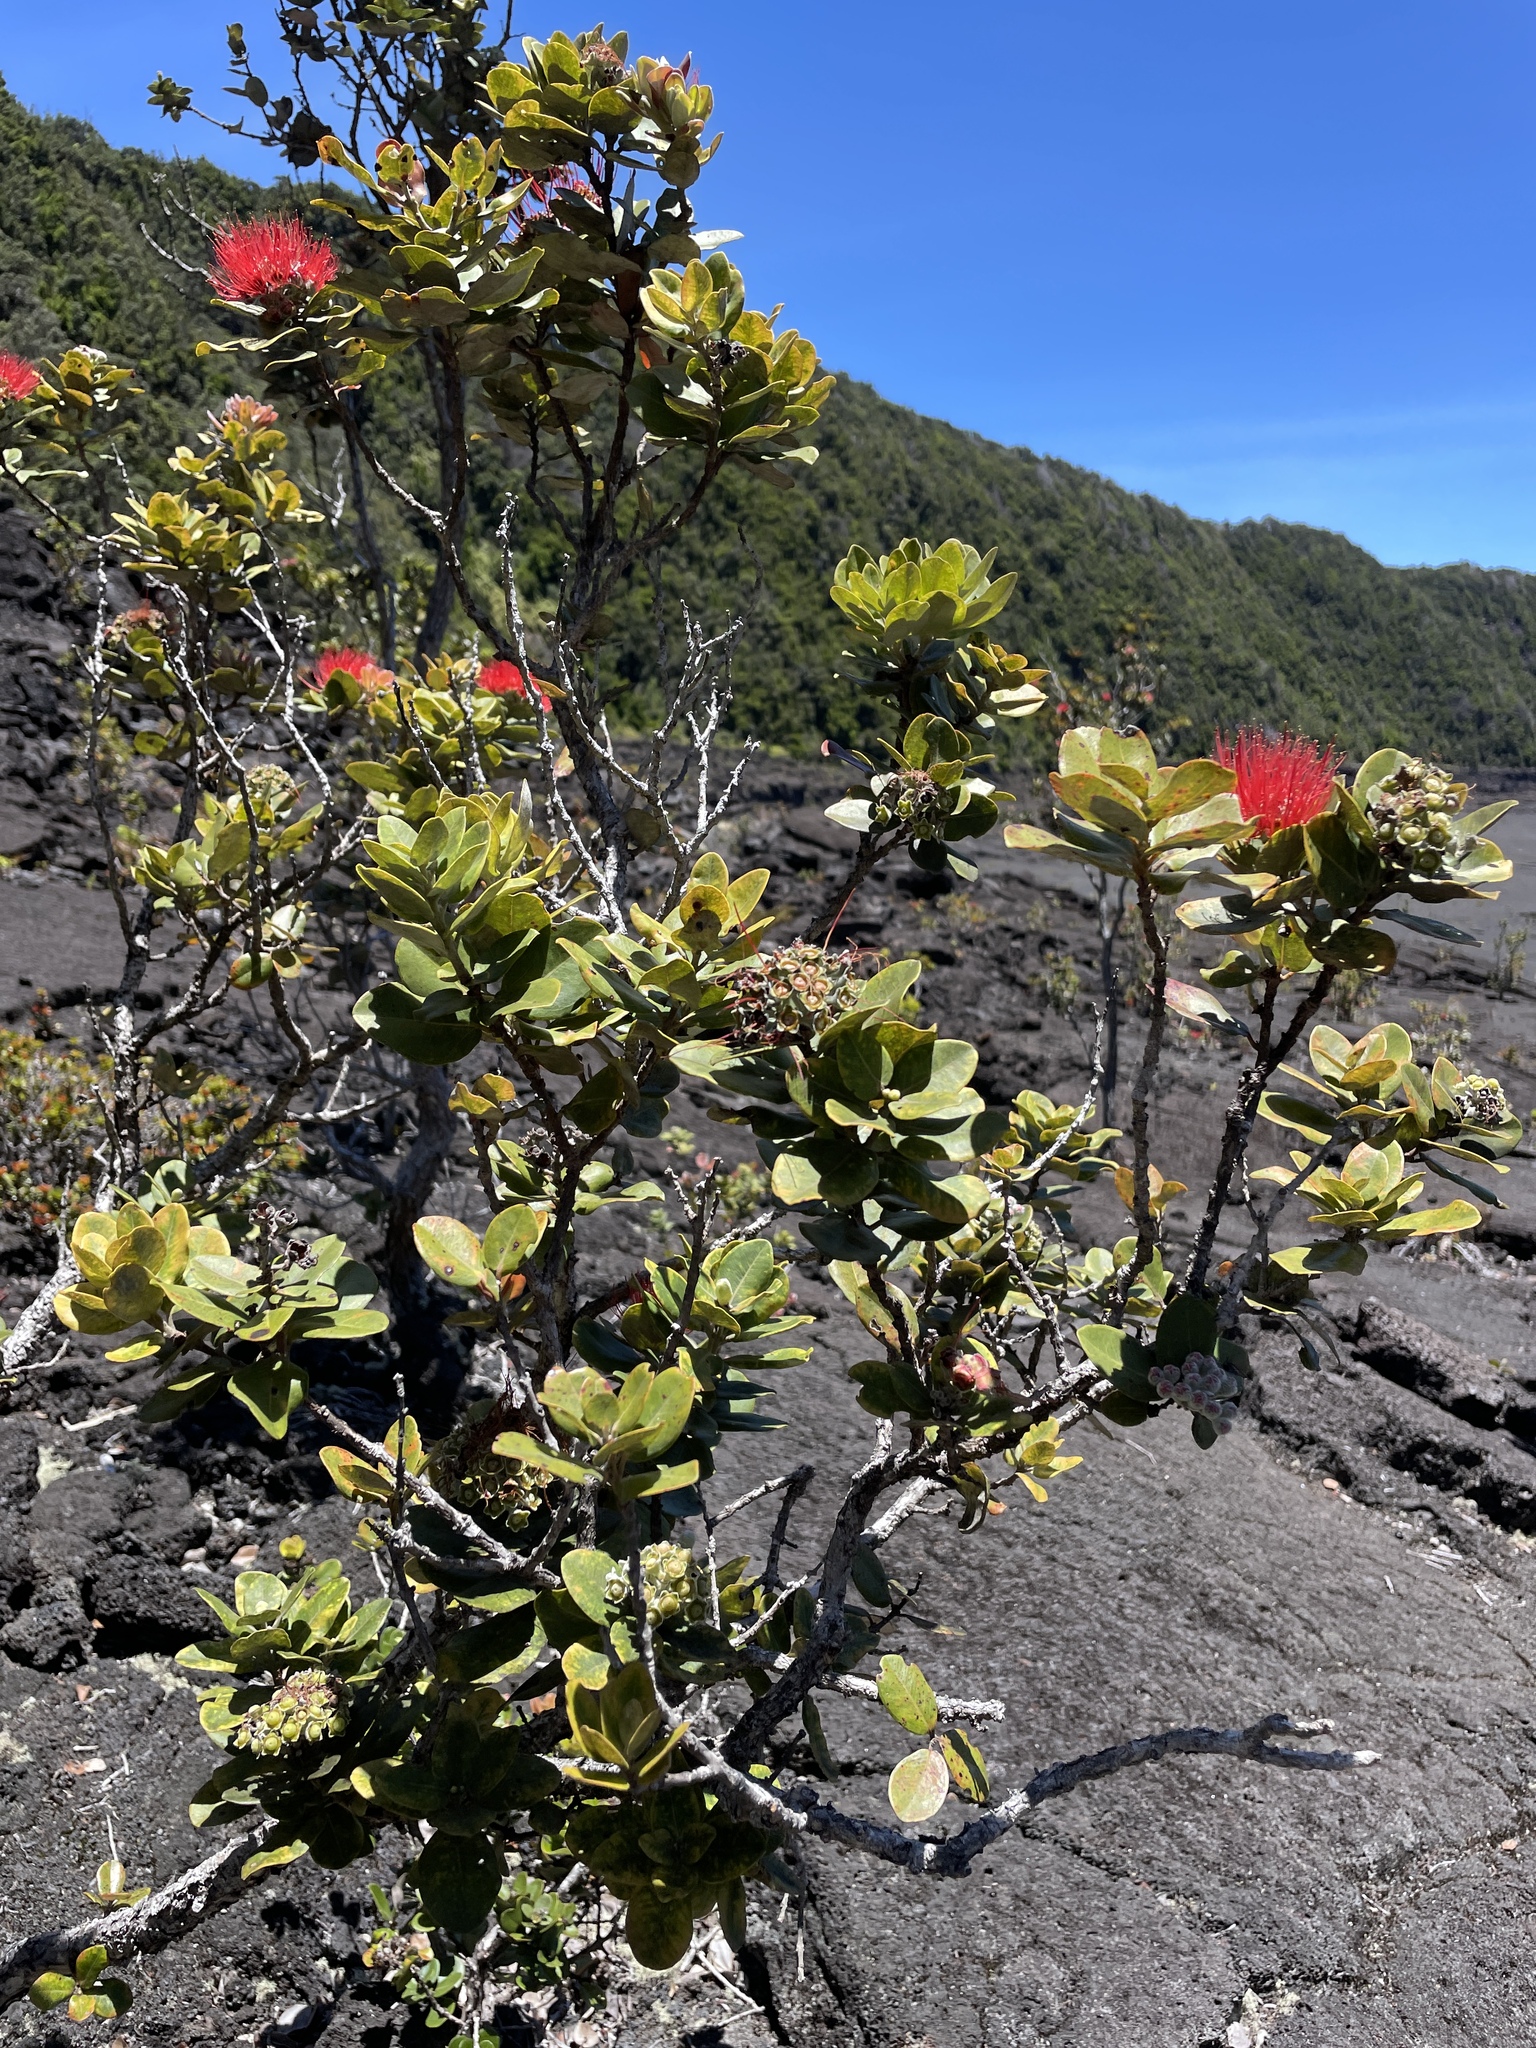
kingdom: Plantae
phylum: Tracheophyta
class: Magnoliopsida
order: Myrtales
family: Myrtaceae
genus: Metrosideros
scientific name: Metrosideros polymorpha
